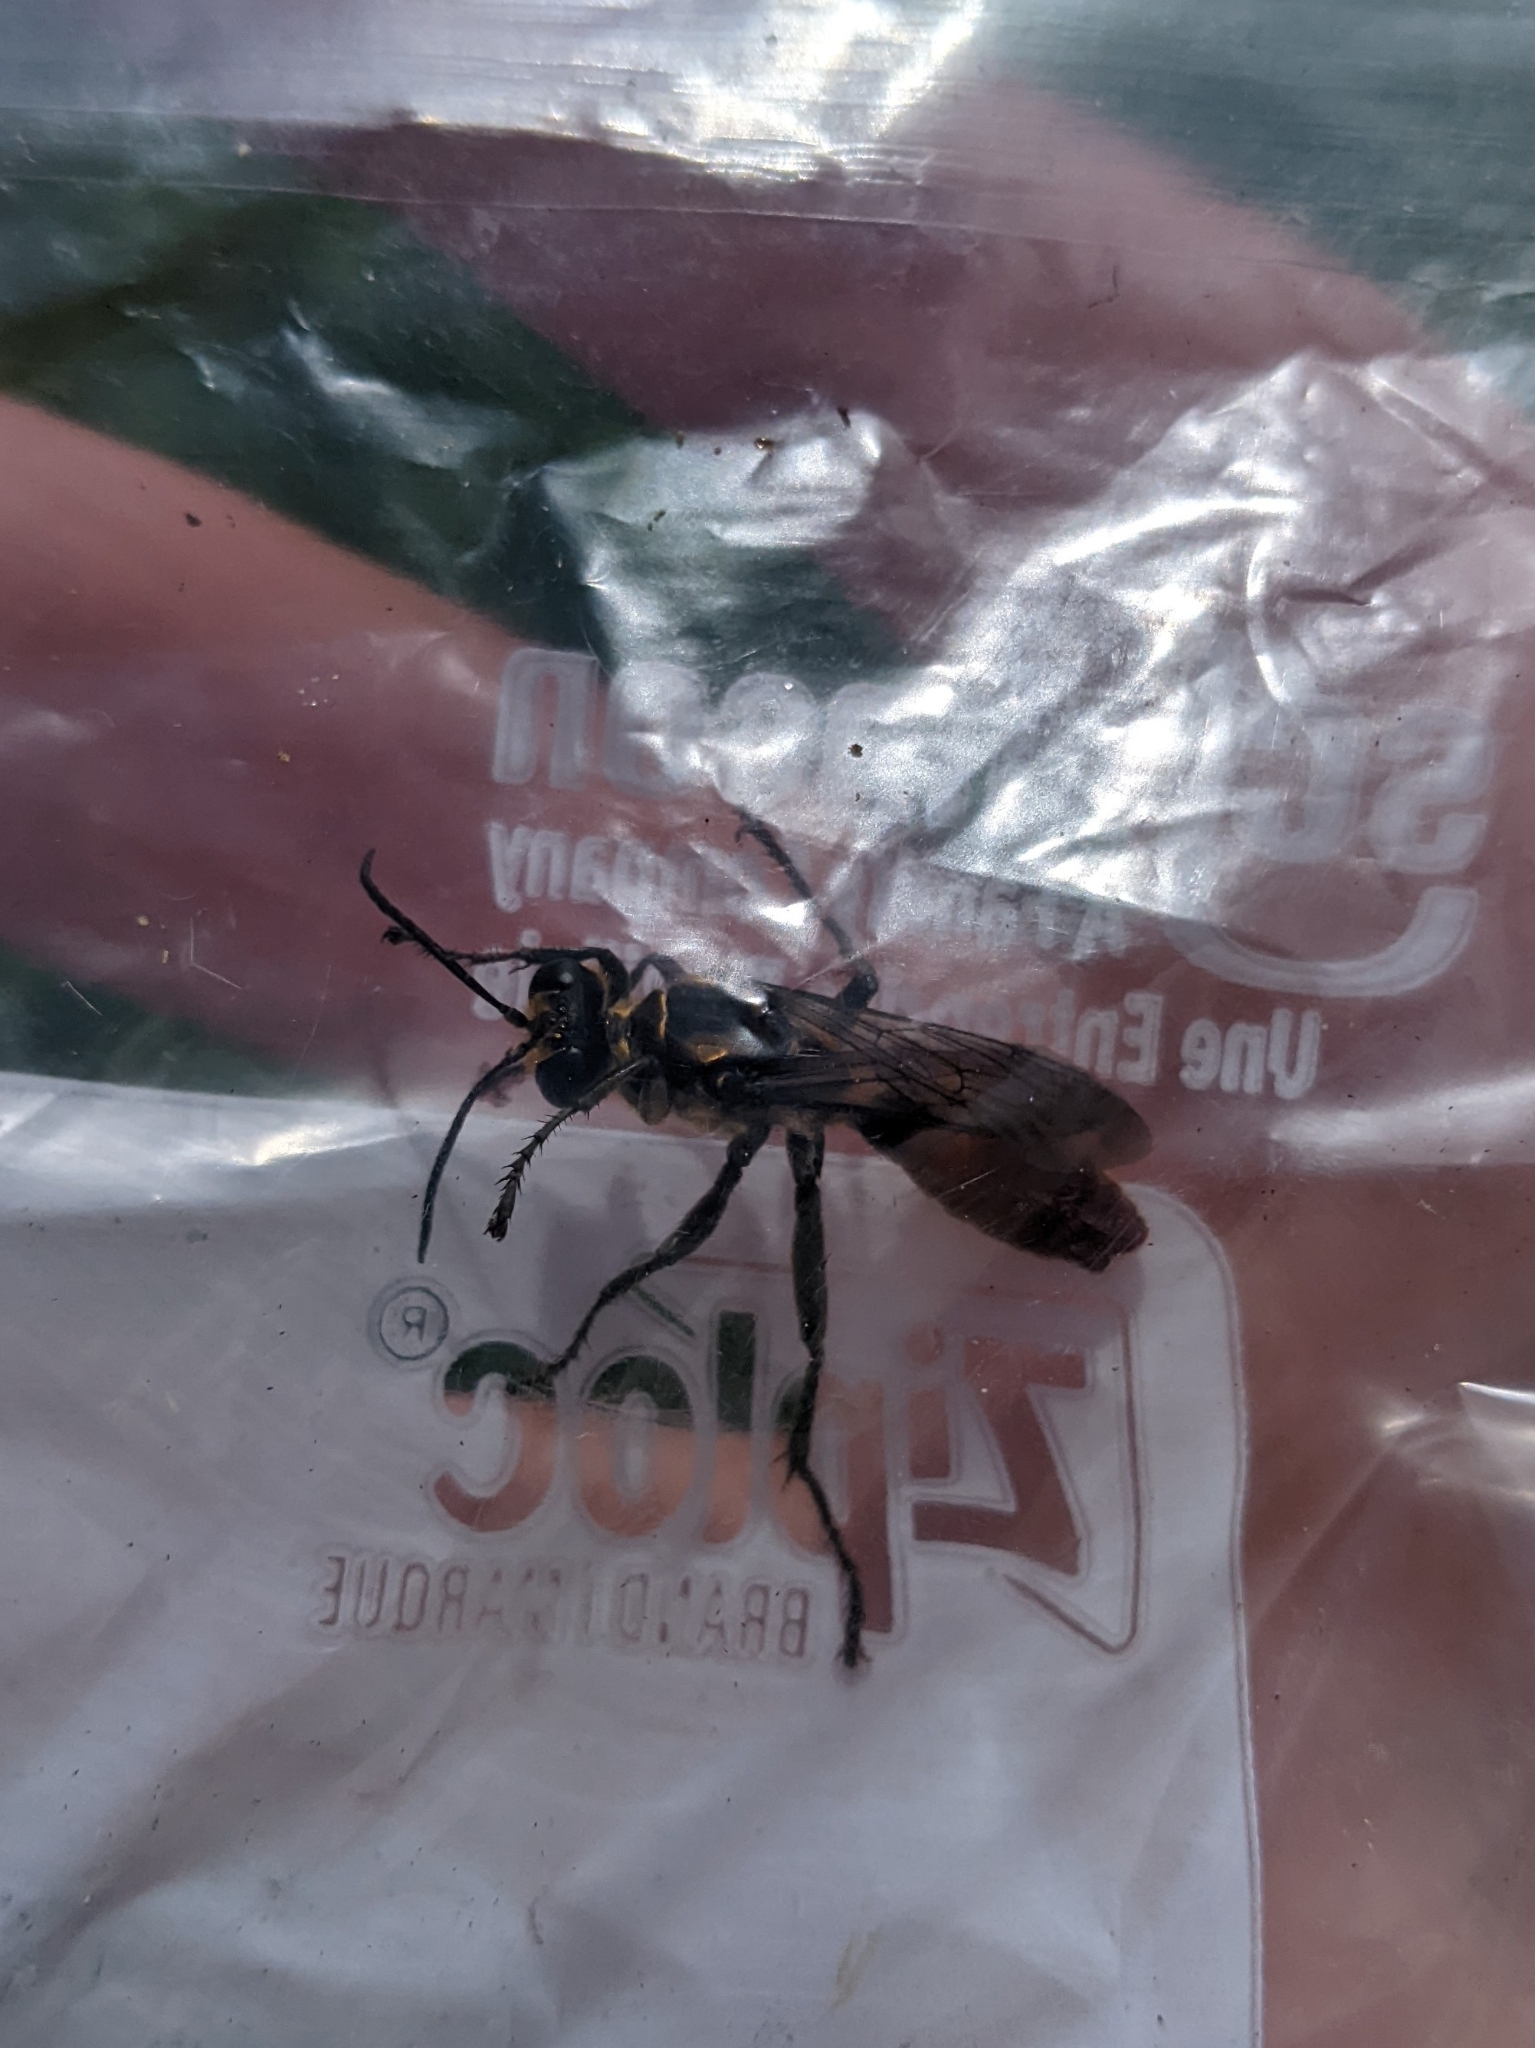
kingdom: Animalia
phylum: Arthropoda
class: Insecta
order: Hymenoptera
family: Sphecidae
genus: Sphex
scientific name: Sphex habenus
